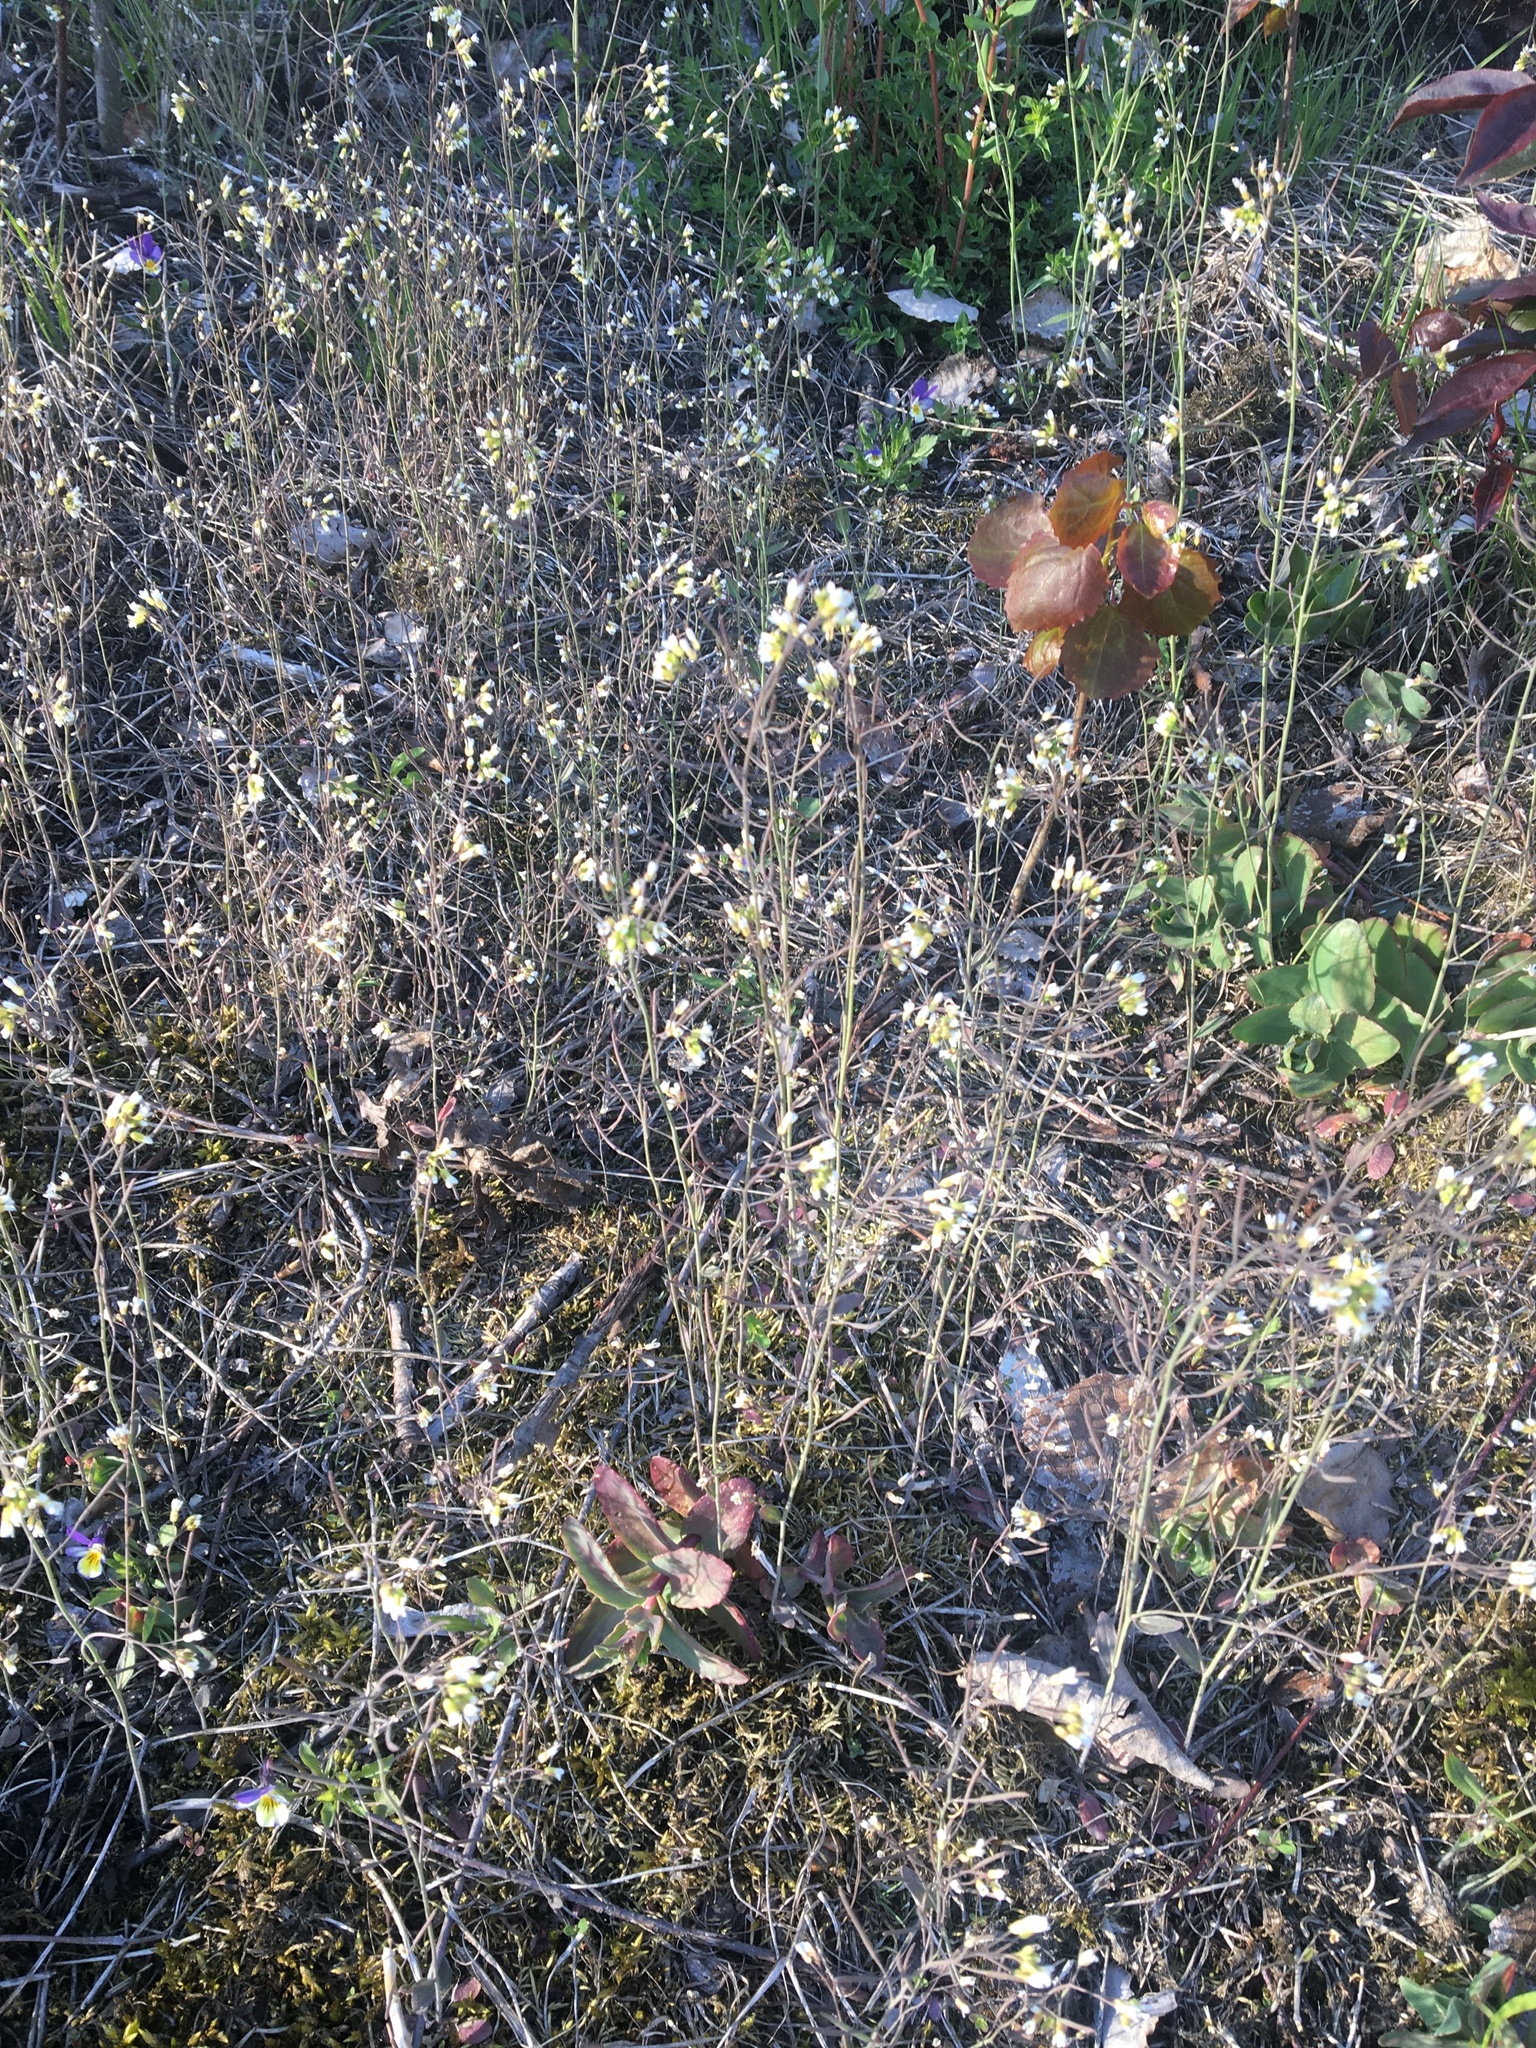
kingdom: Plantae
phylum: Tracheophyta
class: Magnoliopsida
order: Brassicales
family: Brassicaceae
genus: Arabidopsis
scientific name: Arabidopsis thaliana
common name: Thale cress
